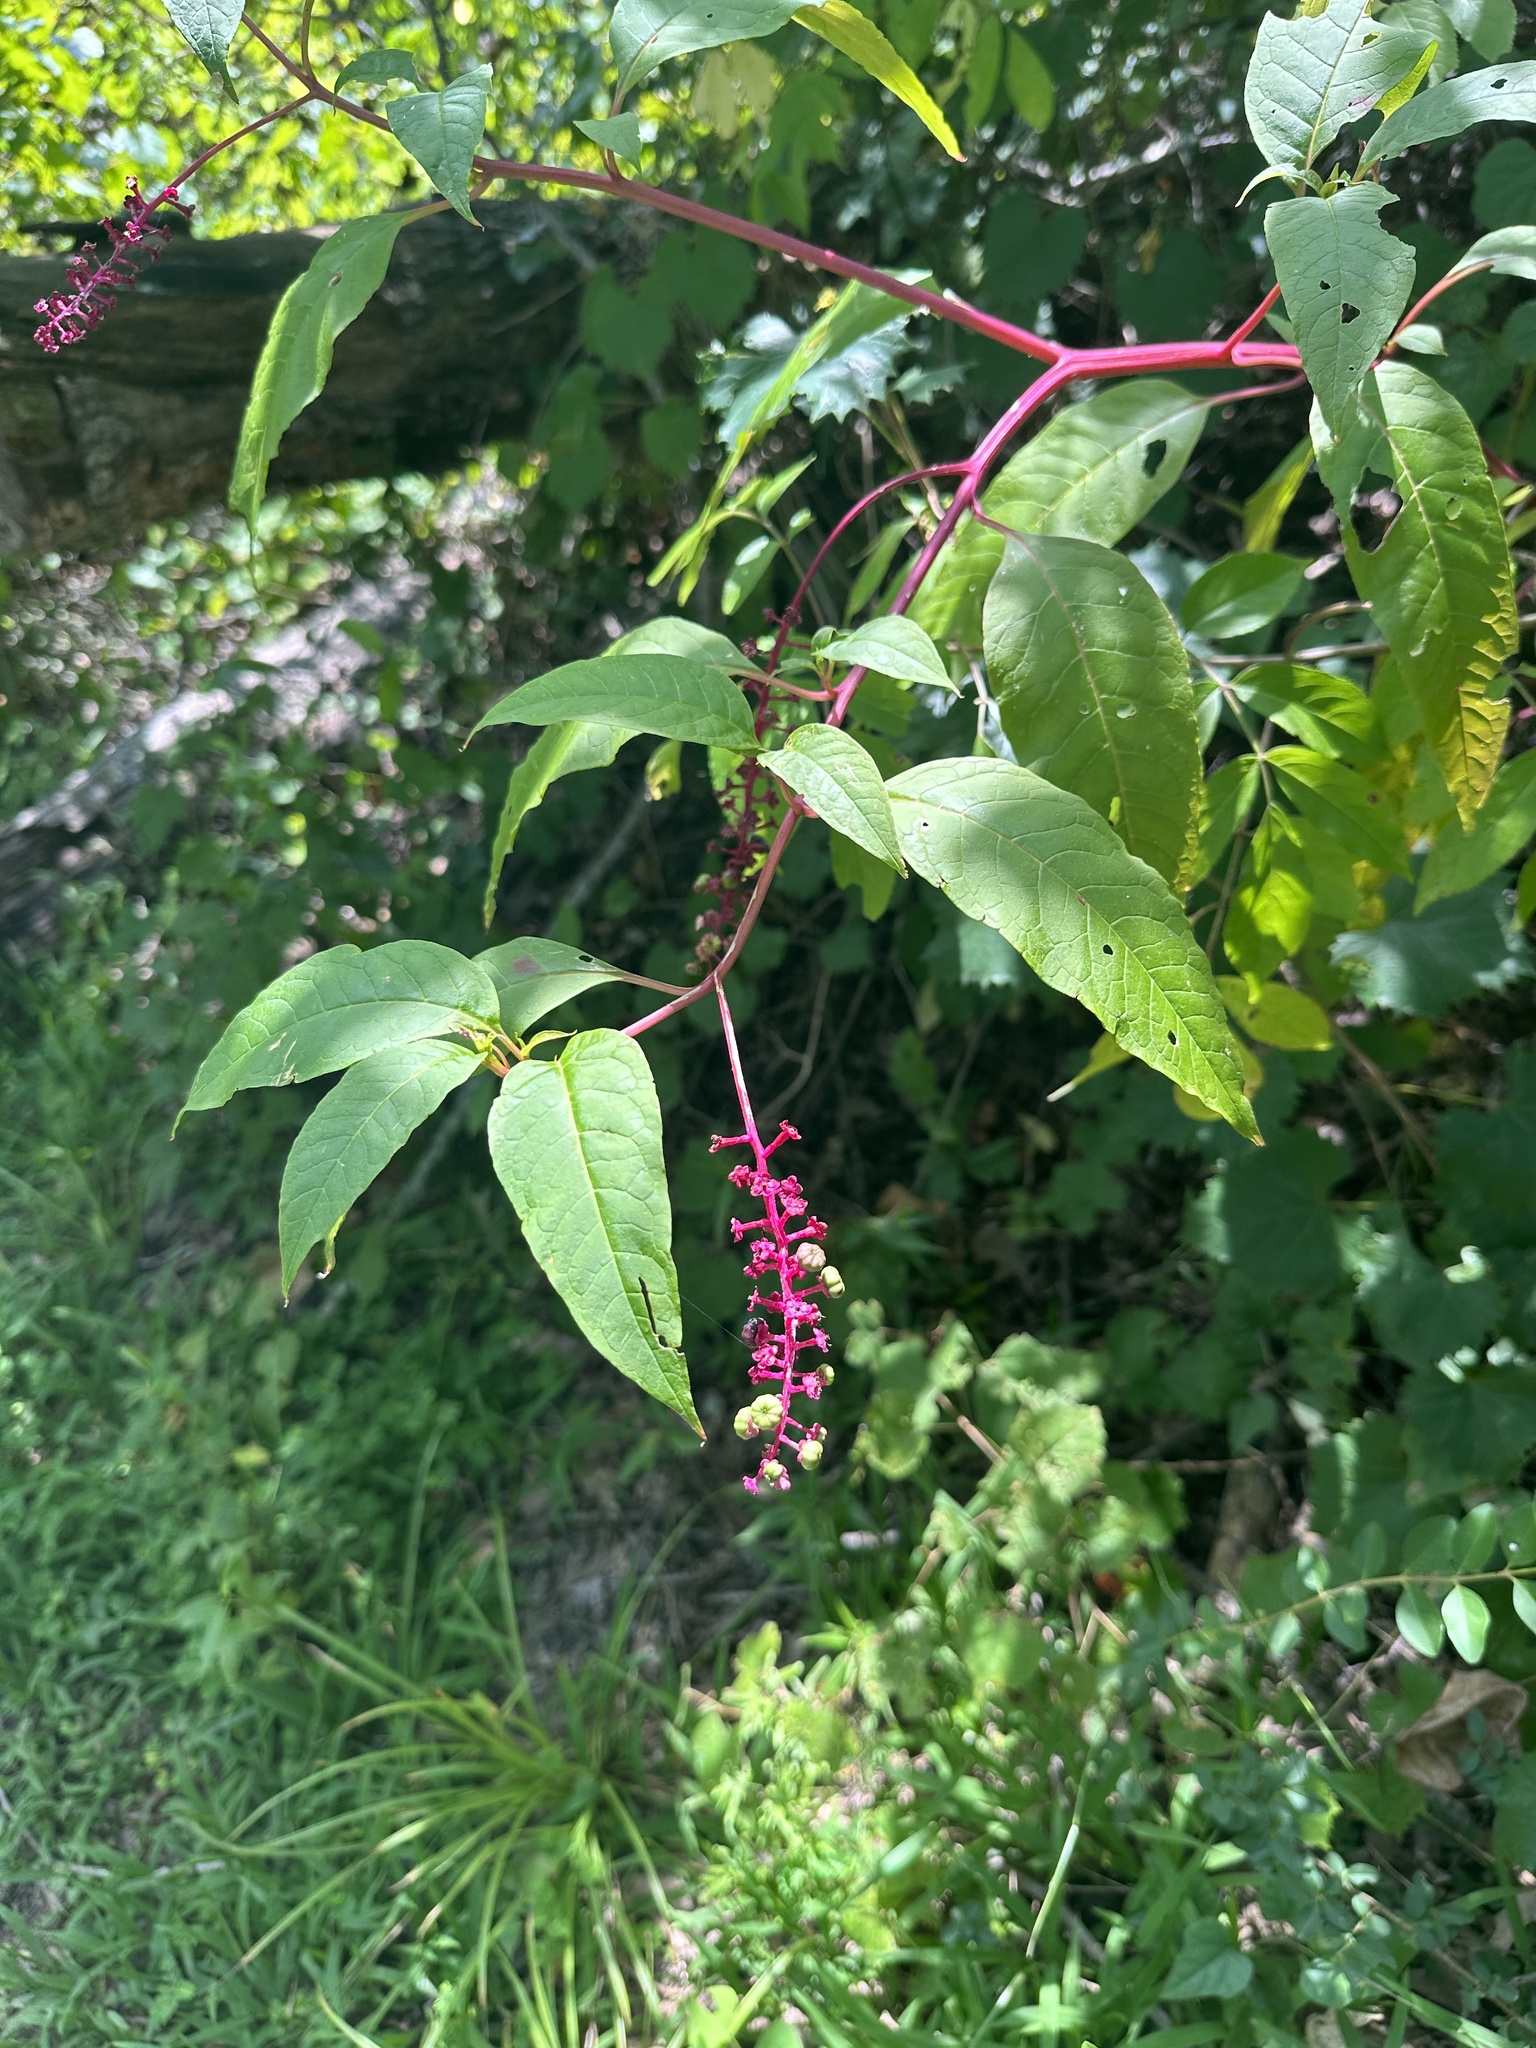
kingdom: Plantae
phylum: Tracheophyta
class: Magnoliopsida
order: Caryophyllales
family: Phytolaccaceae
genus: Phytolacca
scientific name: Phytolacca americana
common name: American pokeweed
